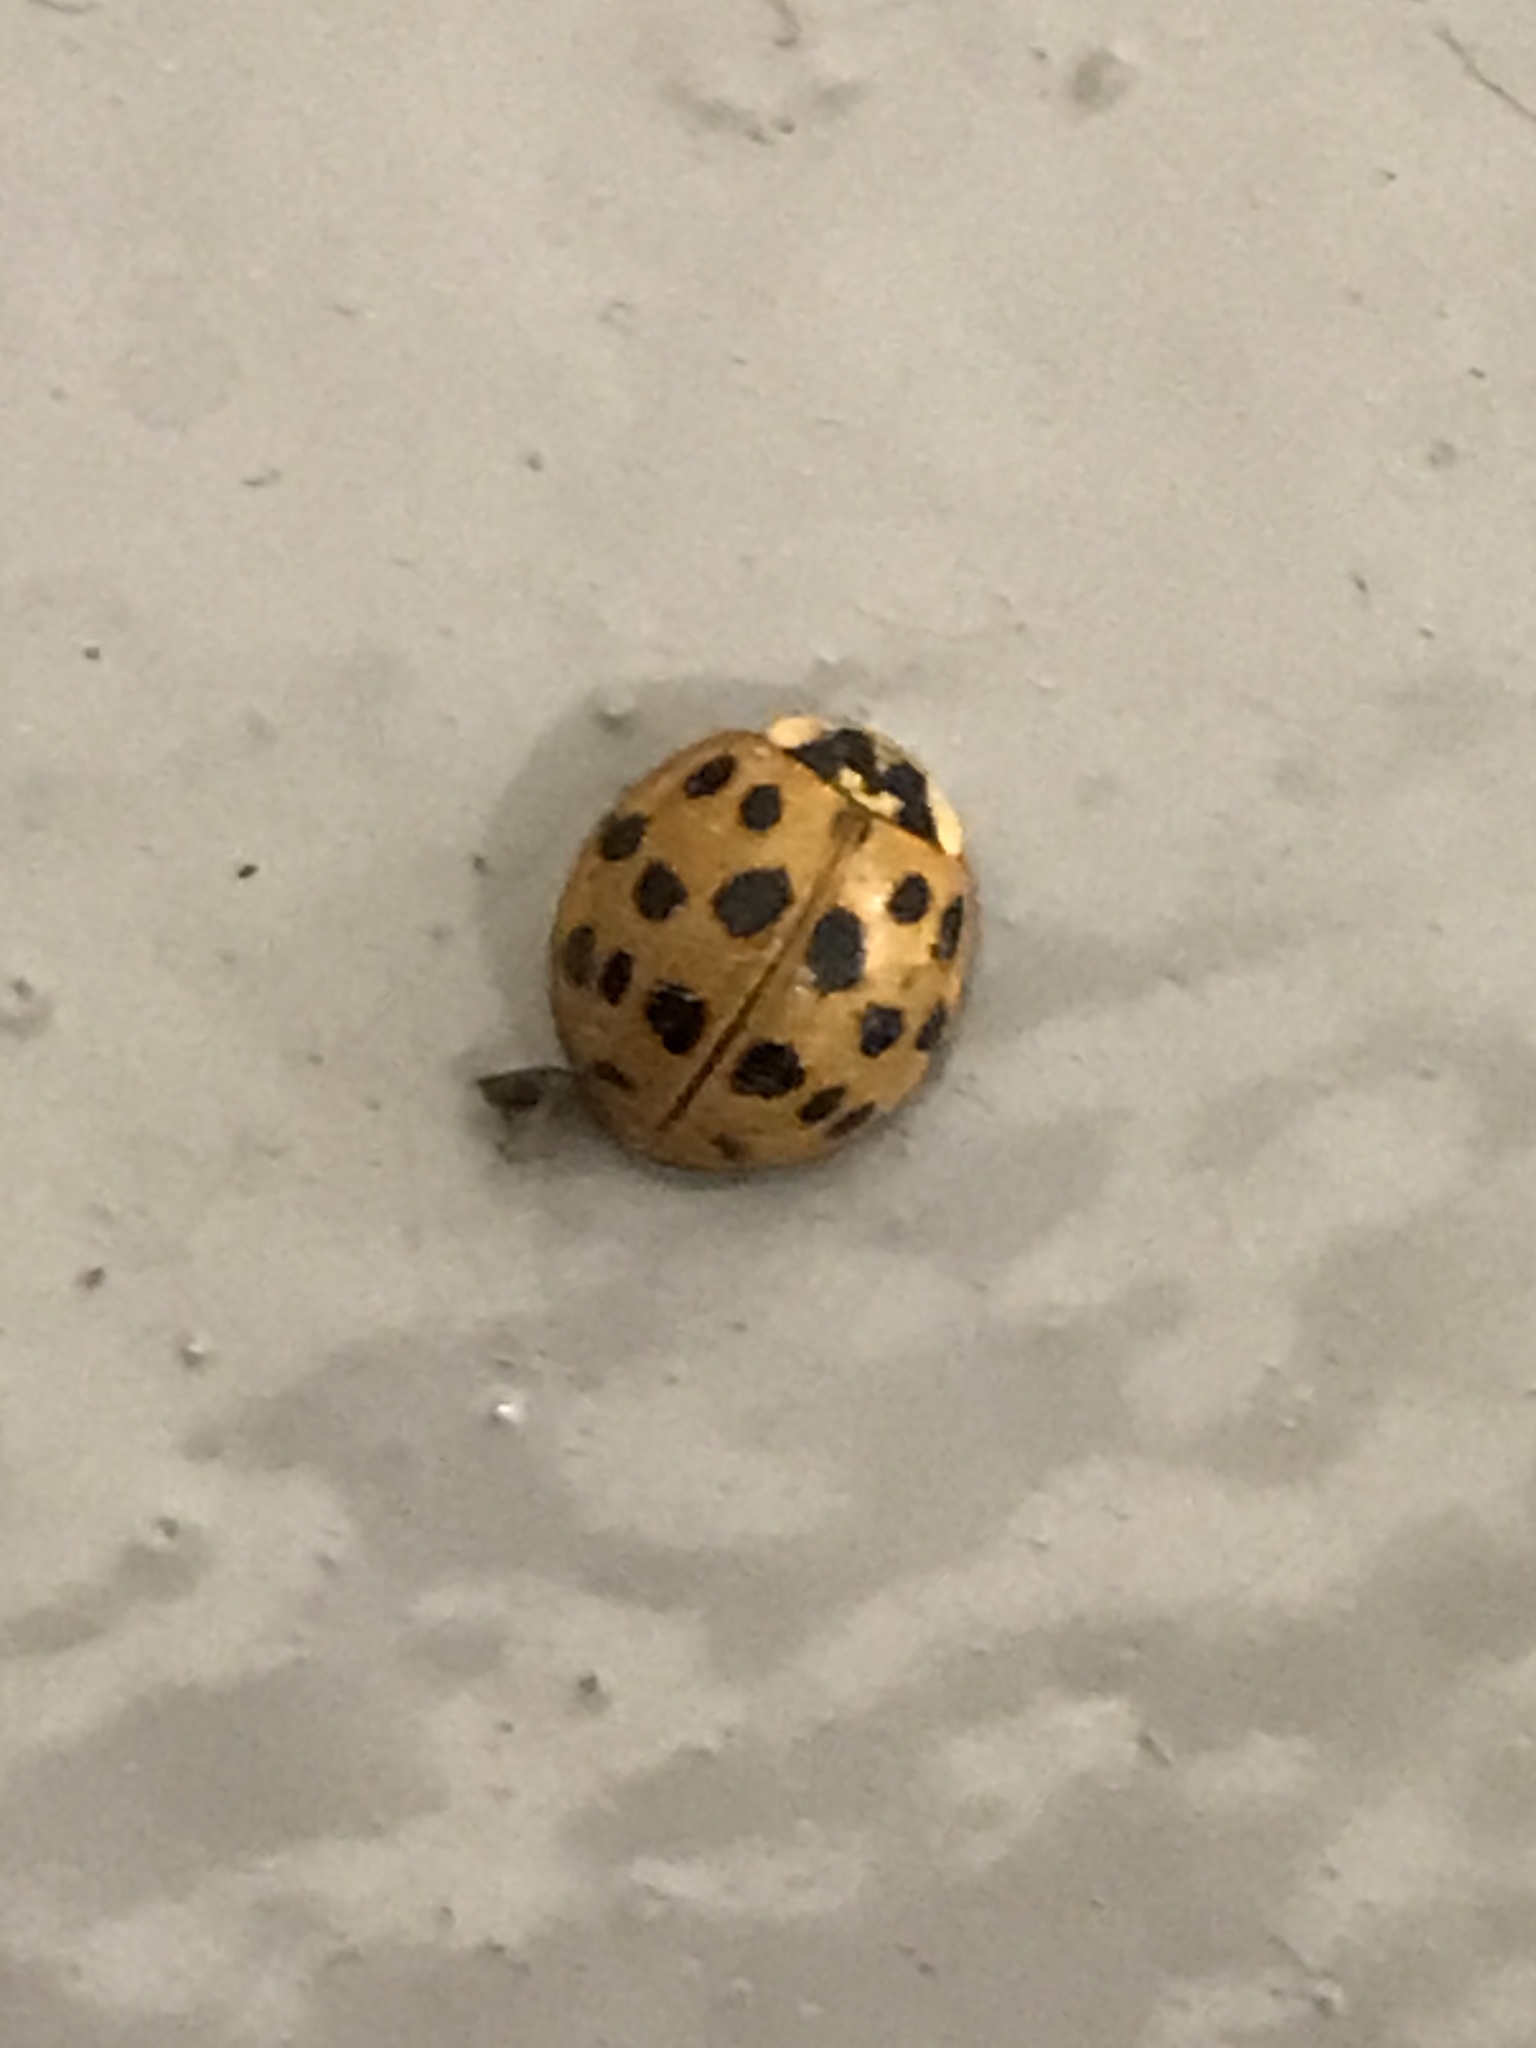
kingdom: Animalia
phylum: Arthropoda
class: Insecta
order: Coleoptera
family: Coccinellidae
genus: Harmonia
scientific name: Harmonia axyridis
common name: Harlequin ladybird
